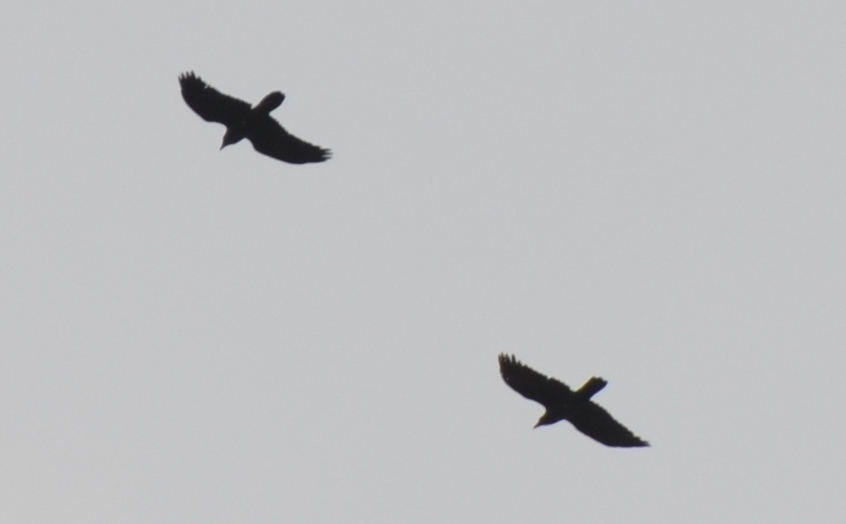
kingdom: Animalia
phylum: Chordata
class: Aves
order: Passeriformes
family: Corvidae
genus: Corvus
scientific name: Corvus corax
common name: Common raven
